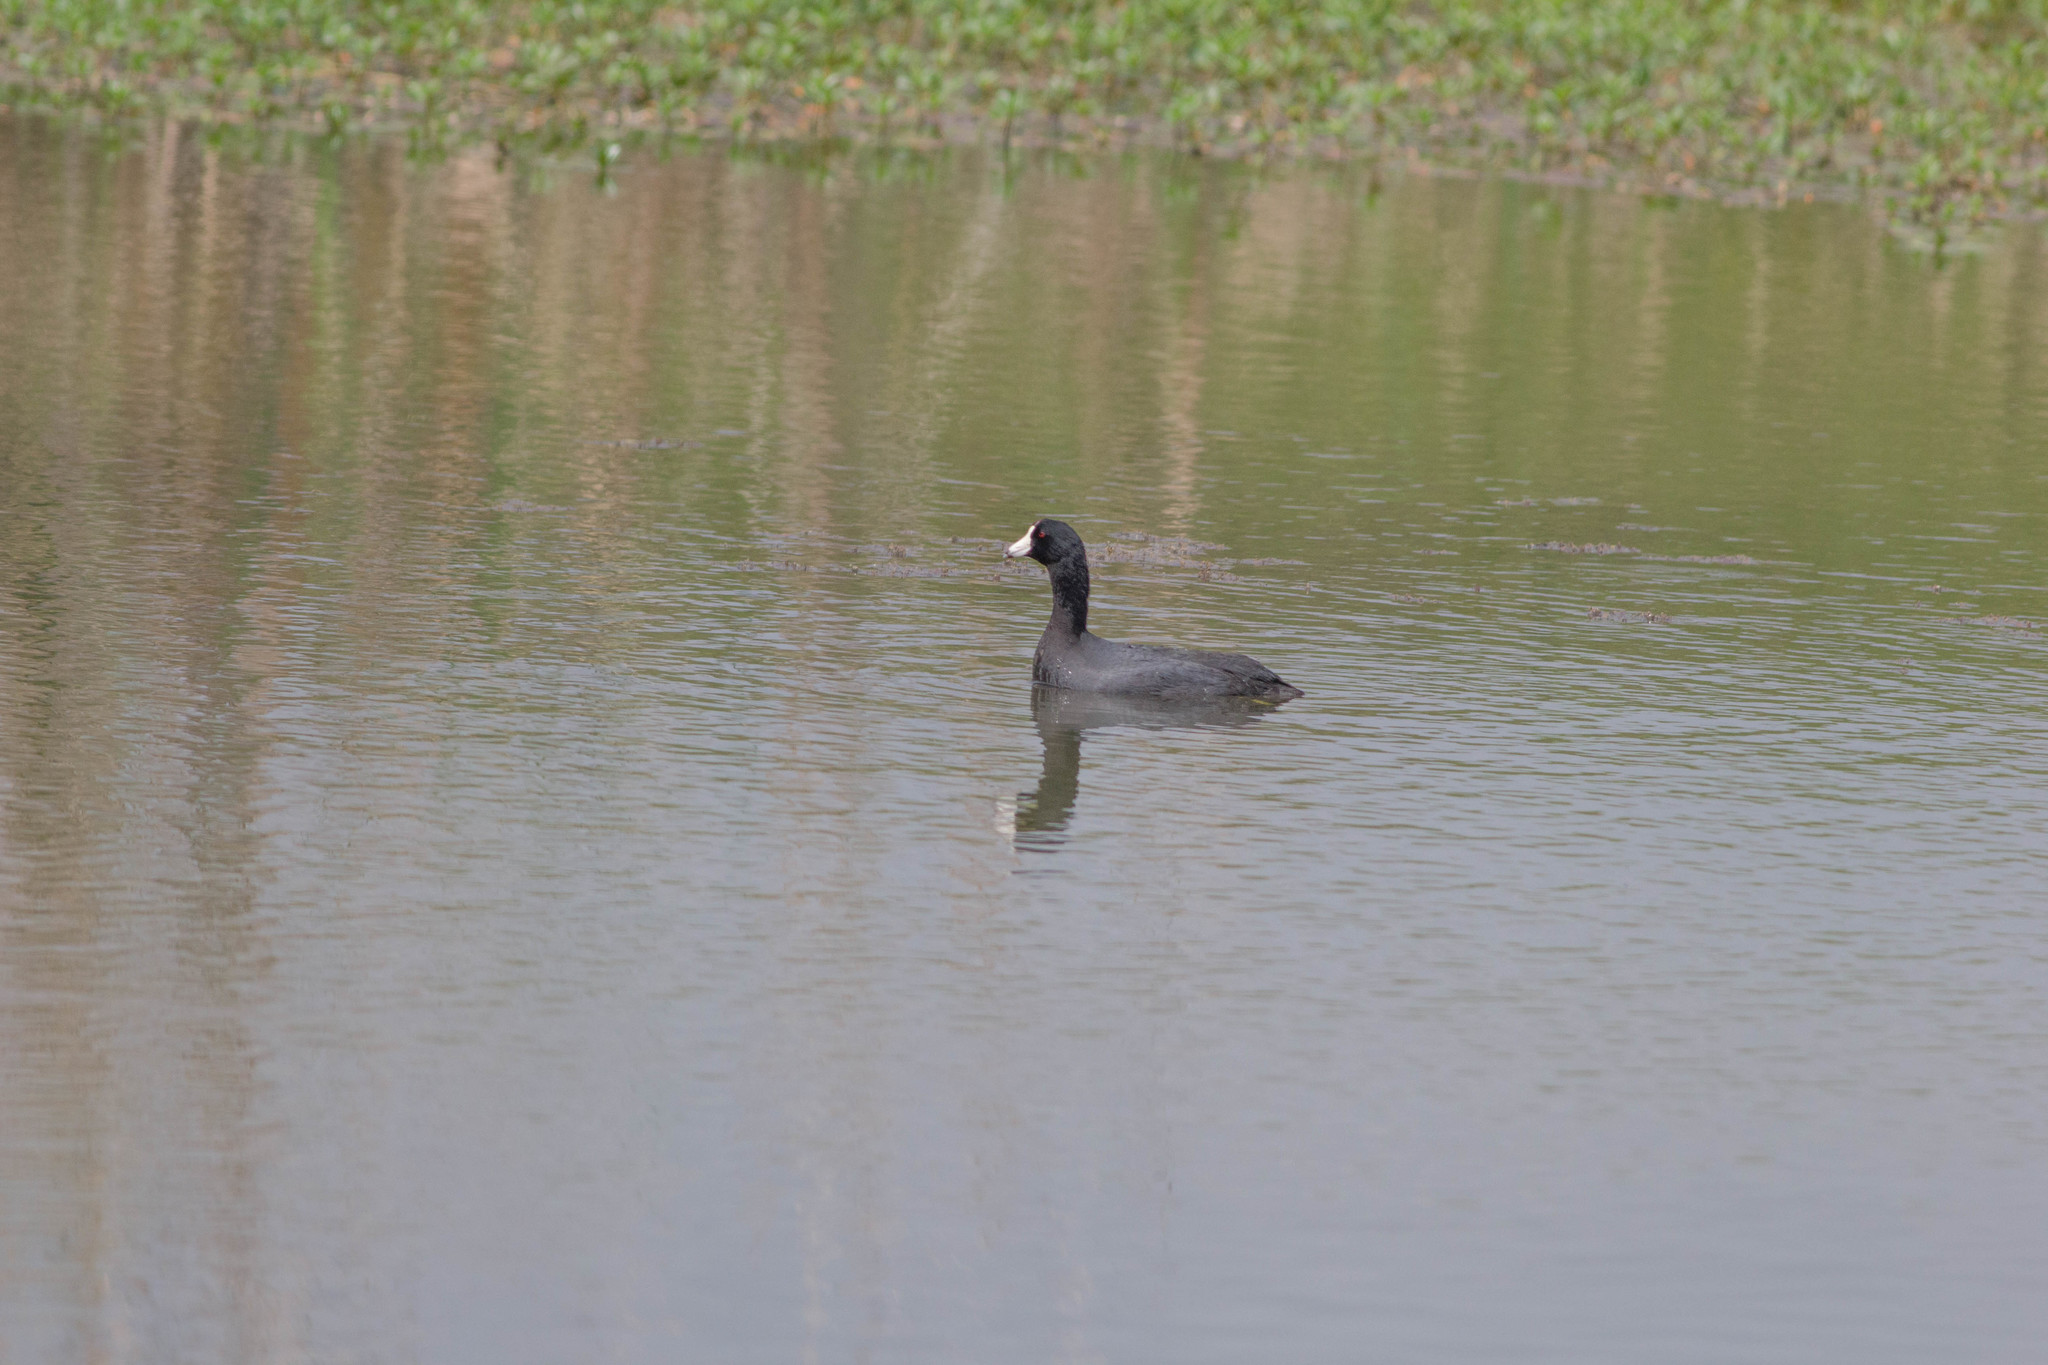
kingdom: Animalia
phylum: Chordata
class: Aves
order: Gruiformes
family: Rallidae
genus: Fulica
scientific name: Fulica americana
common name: American coot
